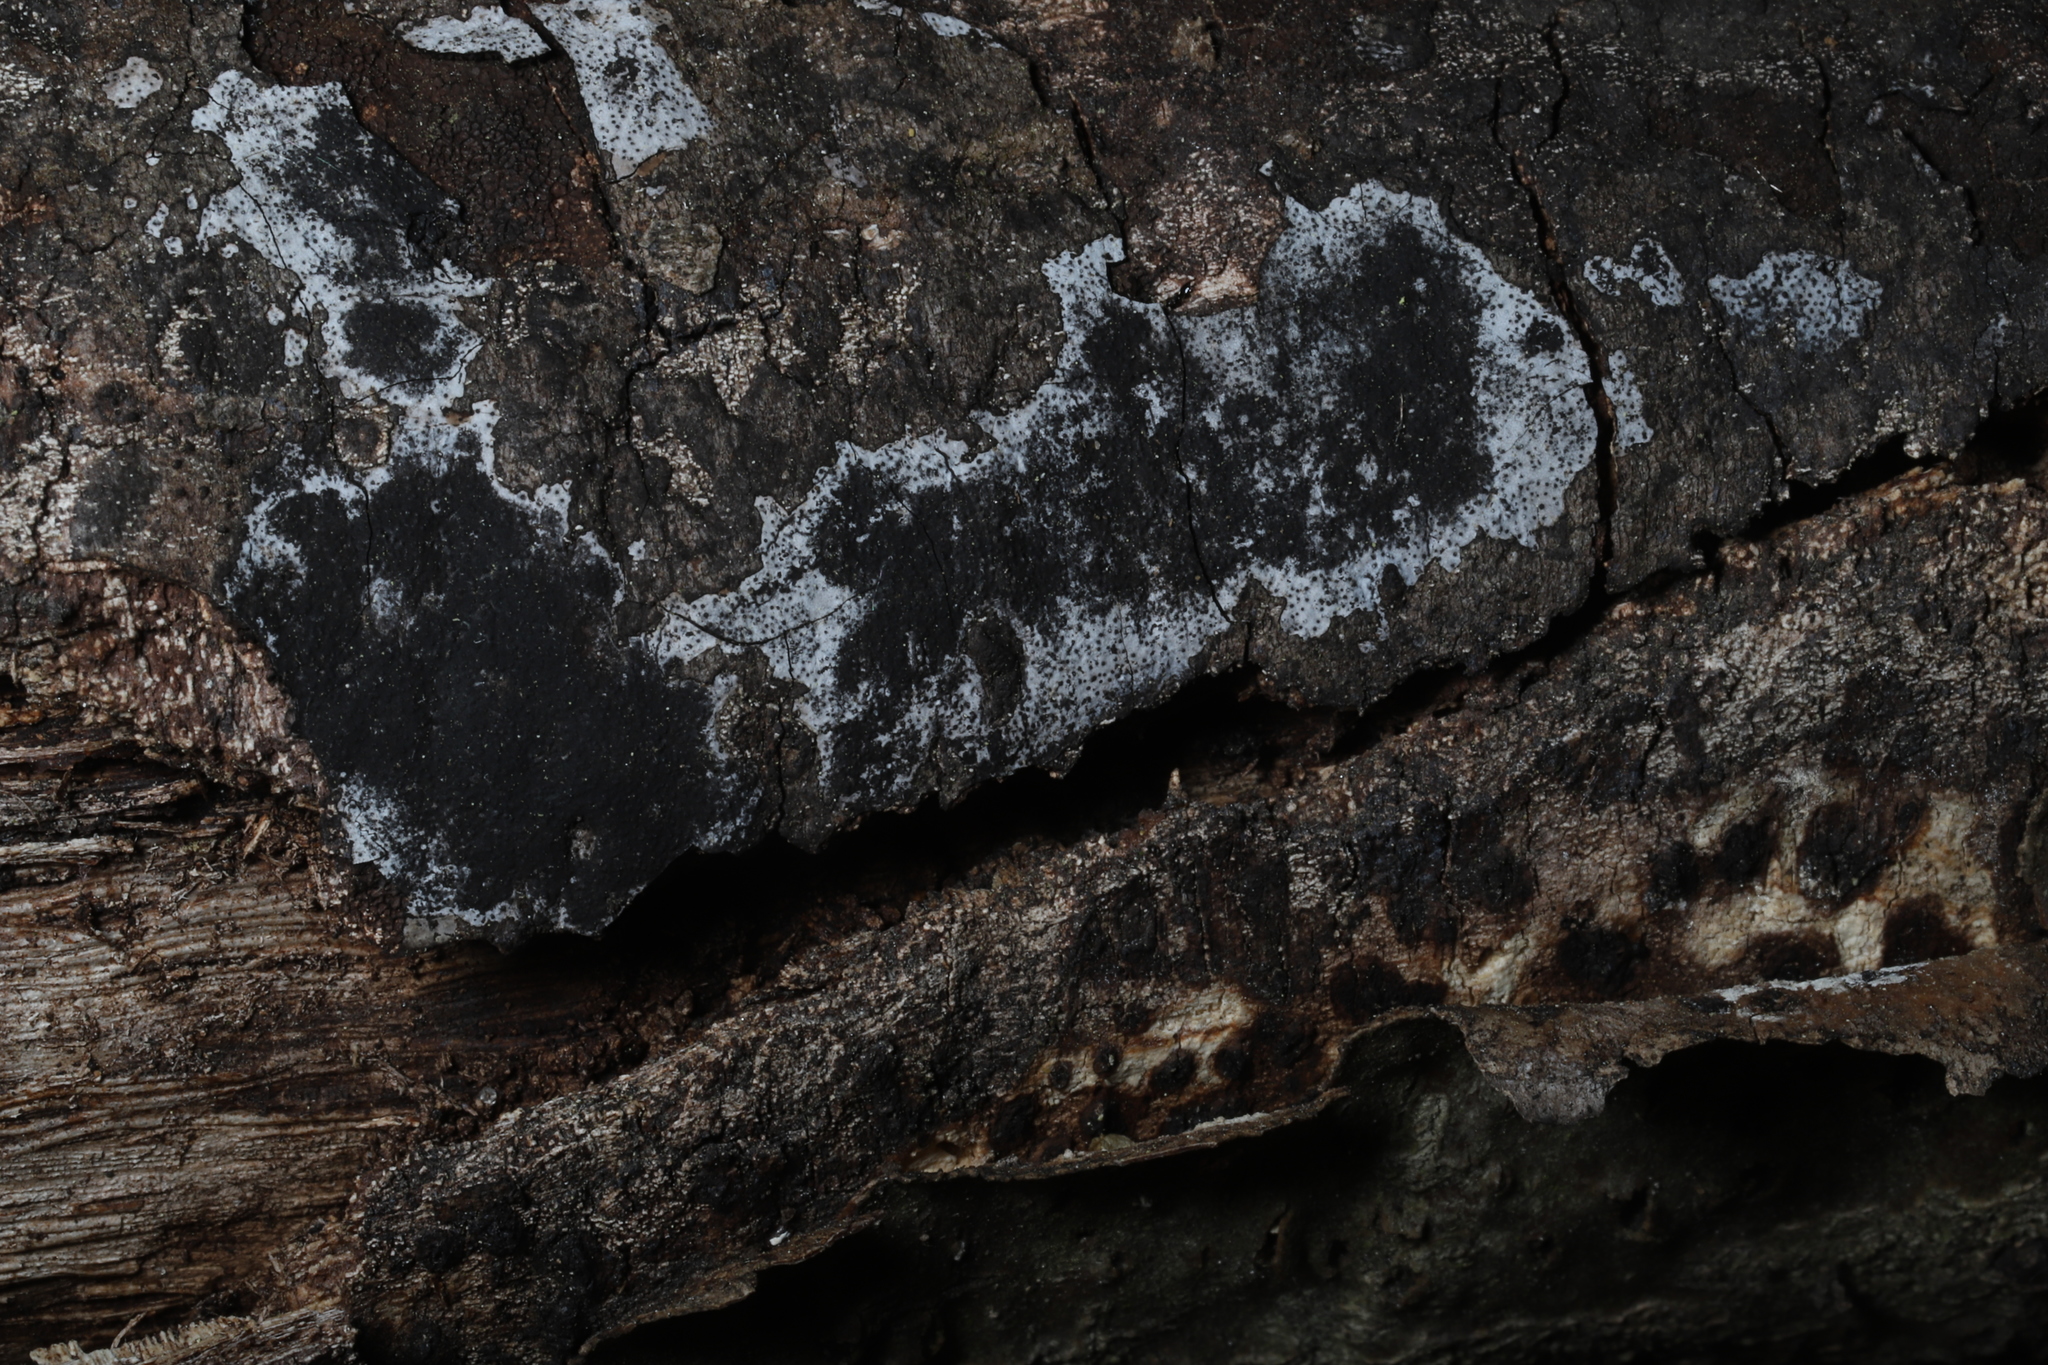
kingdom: Fungi
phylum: Ascomycota
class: Sordariomycetes
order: Xylariales
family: Graphostromataceae
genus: Biscogniauxia
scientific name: Biscogniauxia atropunctata
